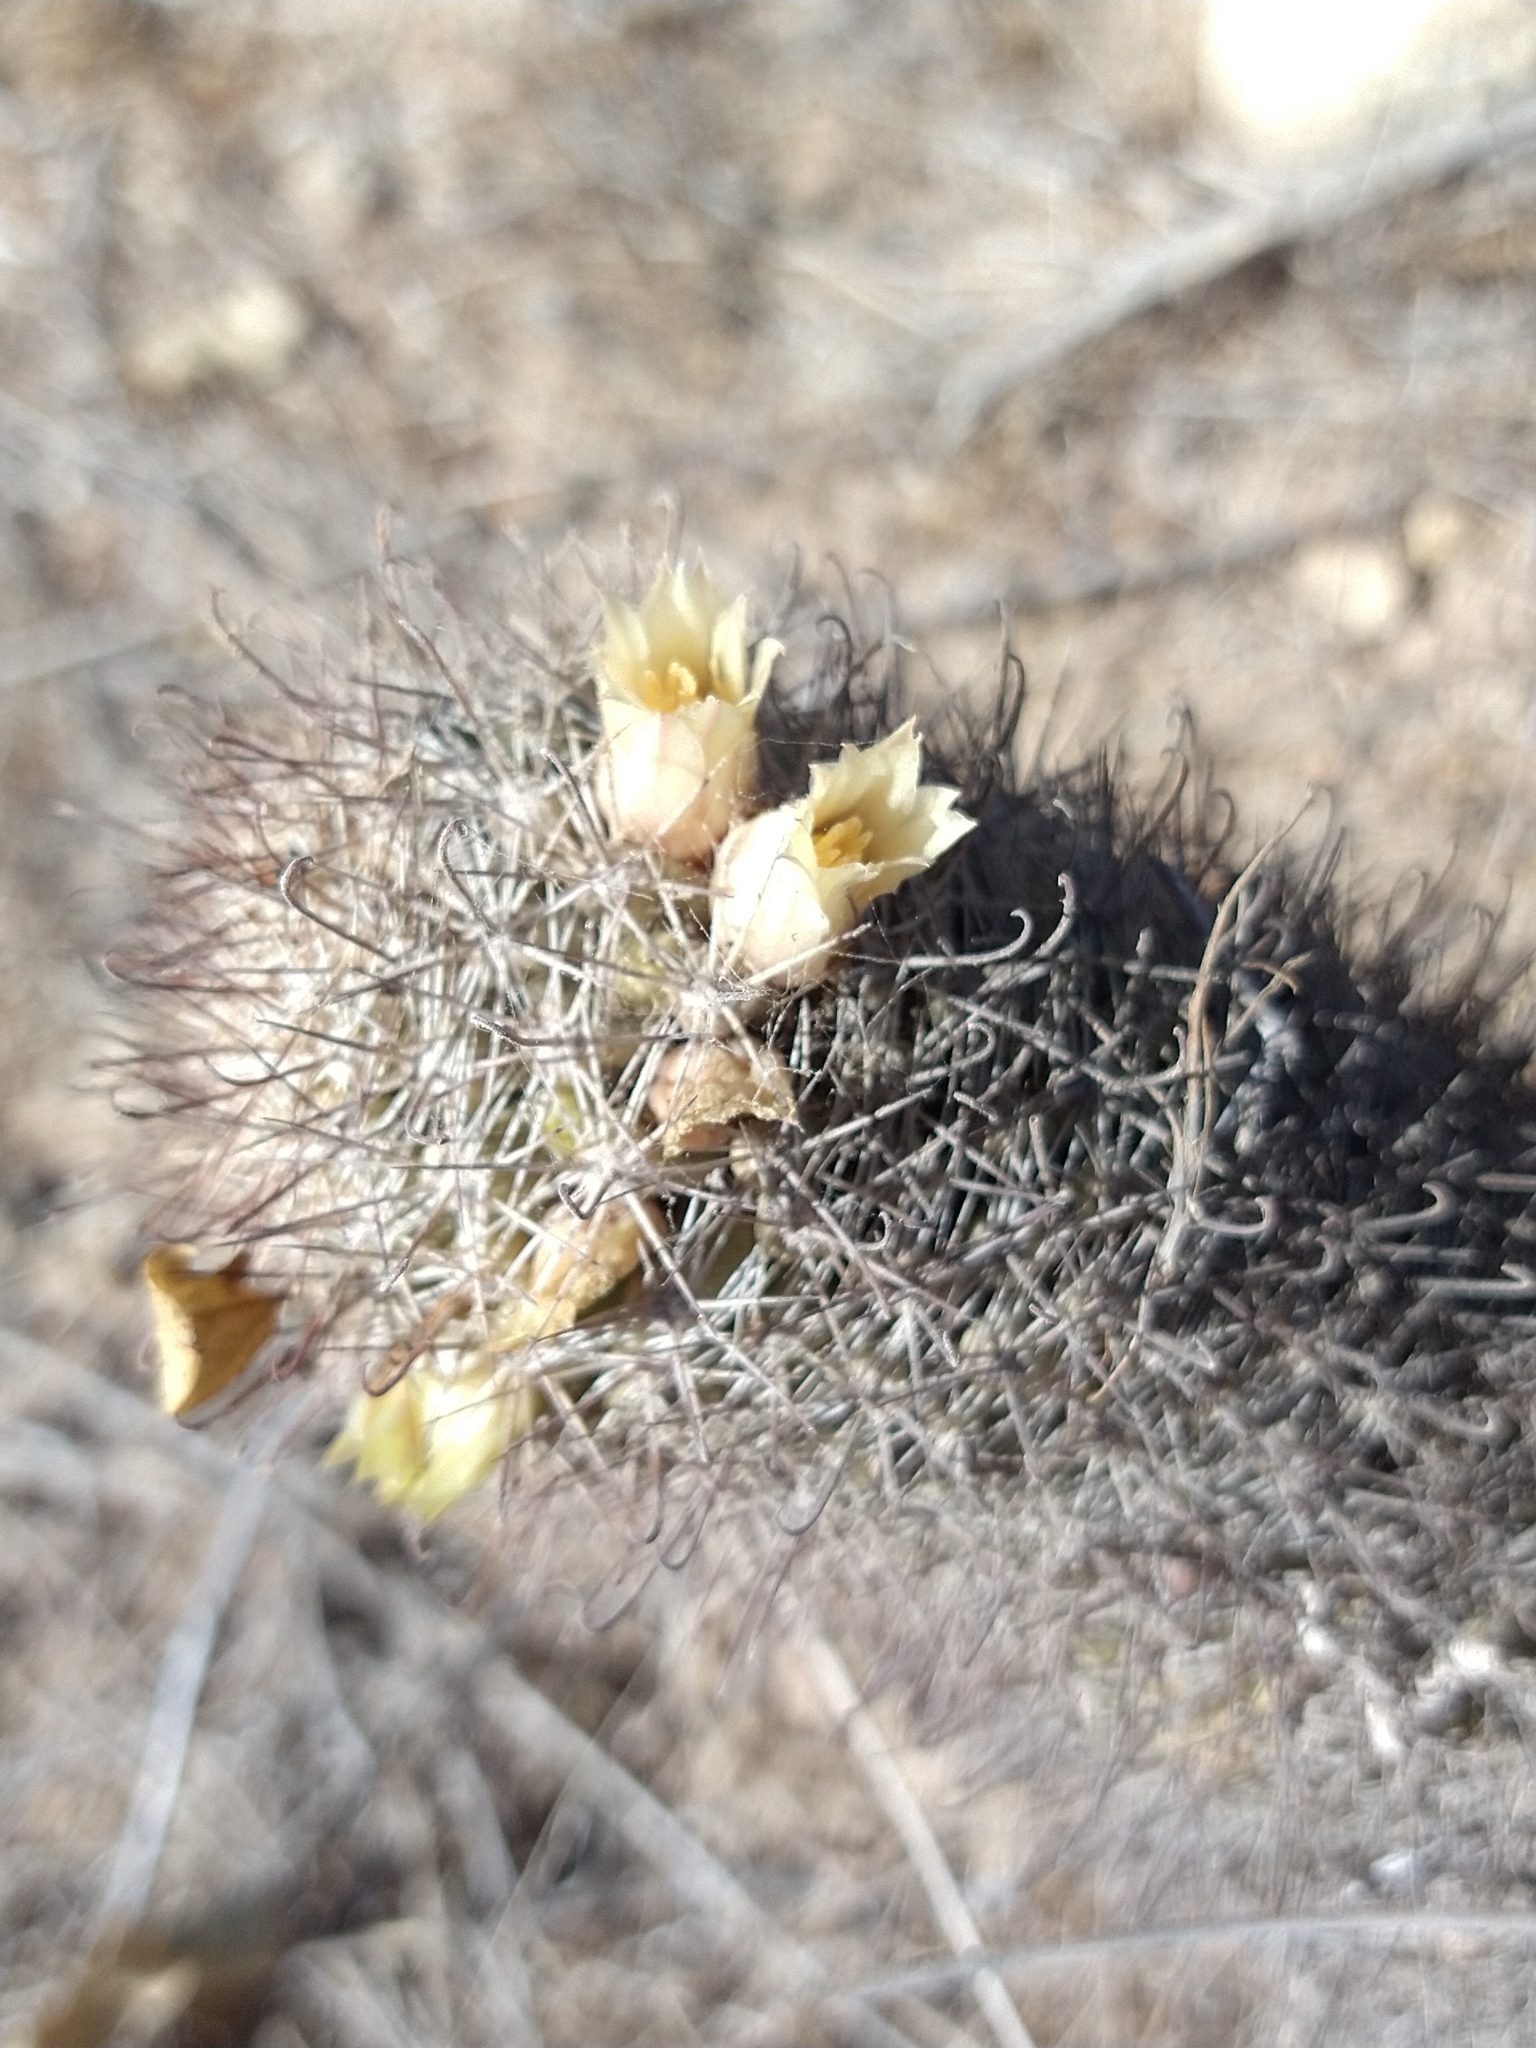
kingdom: Plantae
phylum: Tracheophyta
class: Magnoliopsida
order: Caryophyllales
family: Cactaceae
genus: Cochemiea
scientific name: Cochemiea armillata
